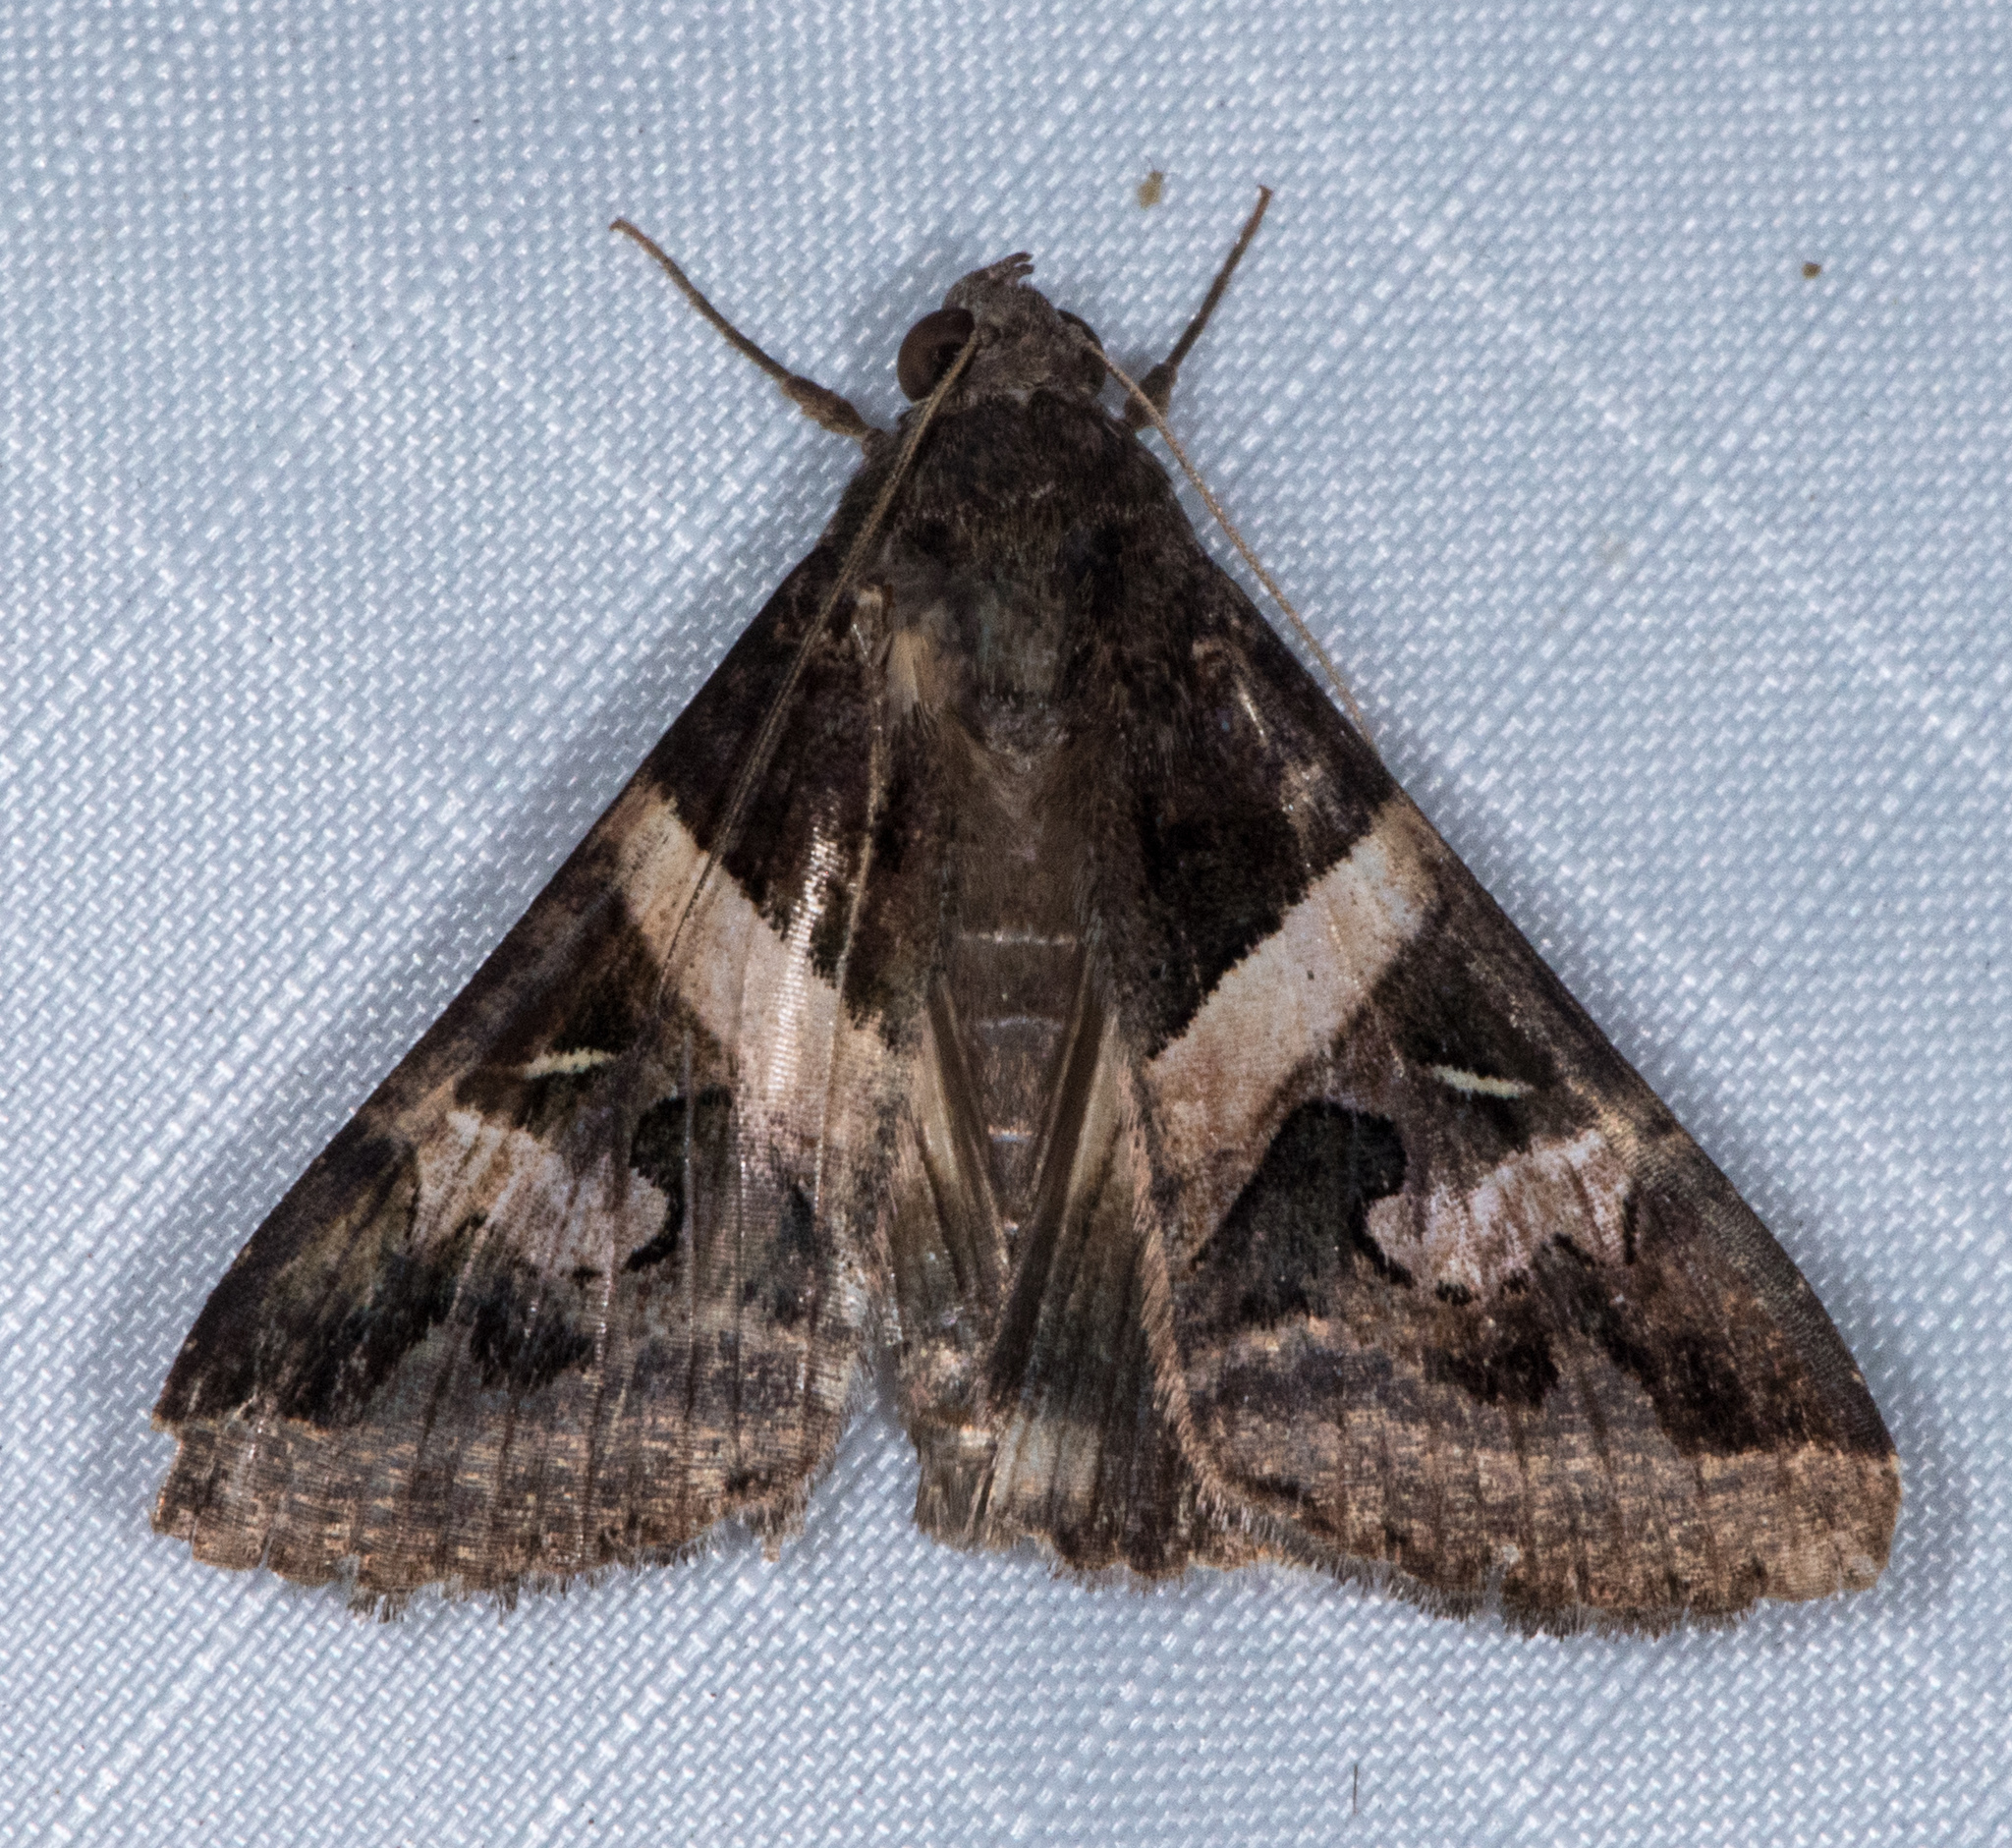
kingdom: Animalia
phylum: Arthropoda
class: Insecta
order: Lepidoptera
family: Erebidae
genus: Melipotis
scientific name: Melipotis indomita
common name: Moth
